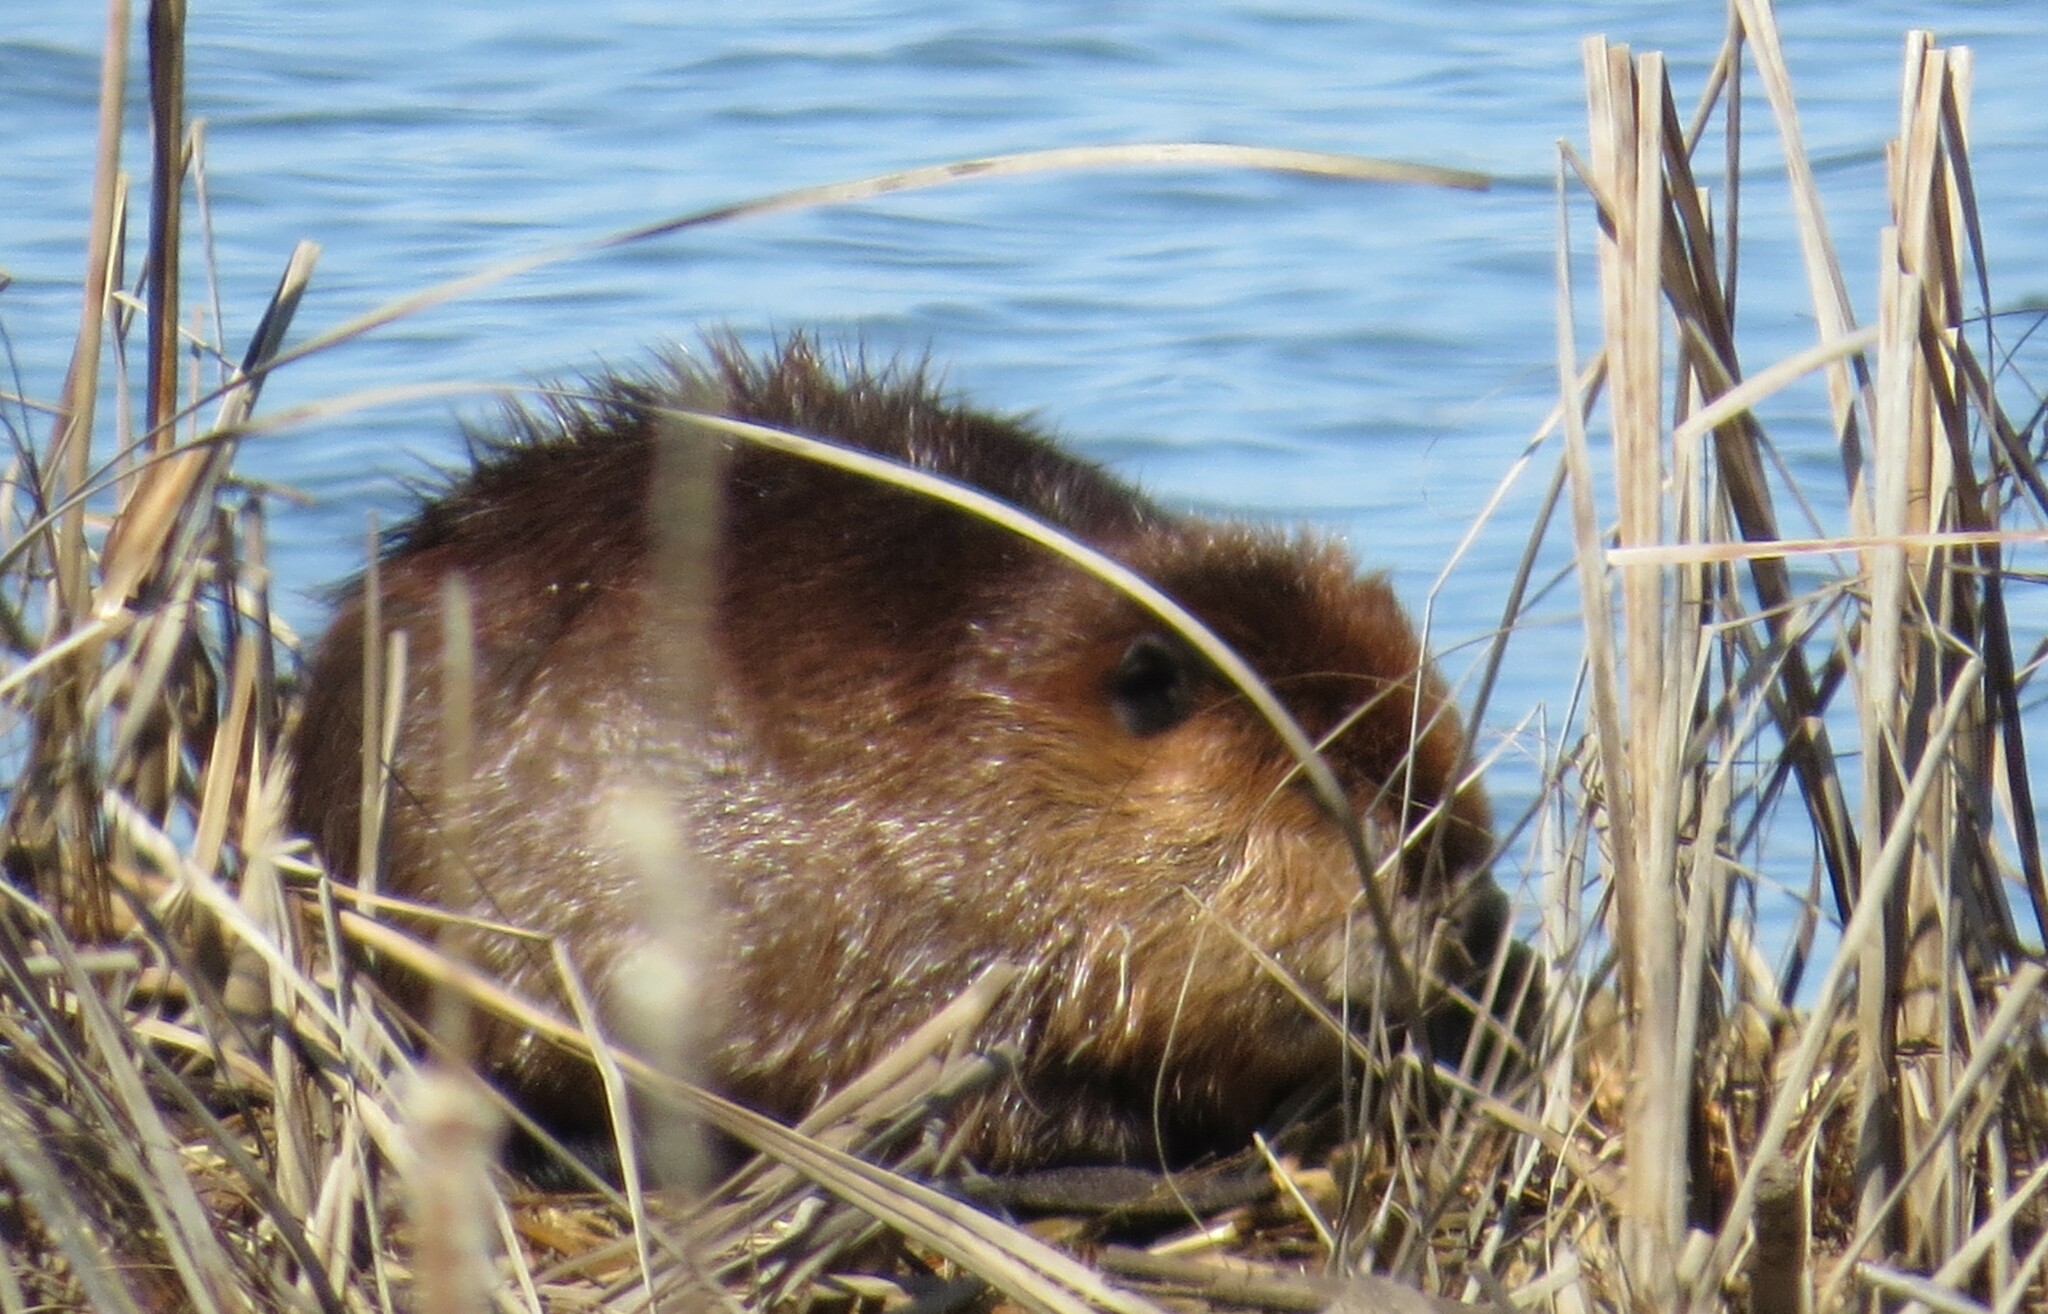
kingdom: Animalia
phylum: Chordata
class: Mammalia
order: Rodentia
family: Castoridae
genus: Castor
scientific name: Castor canadensis
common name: American beaver
